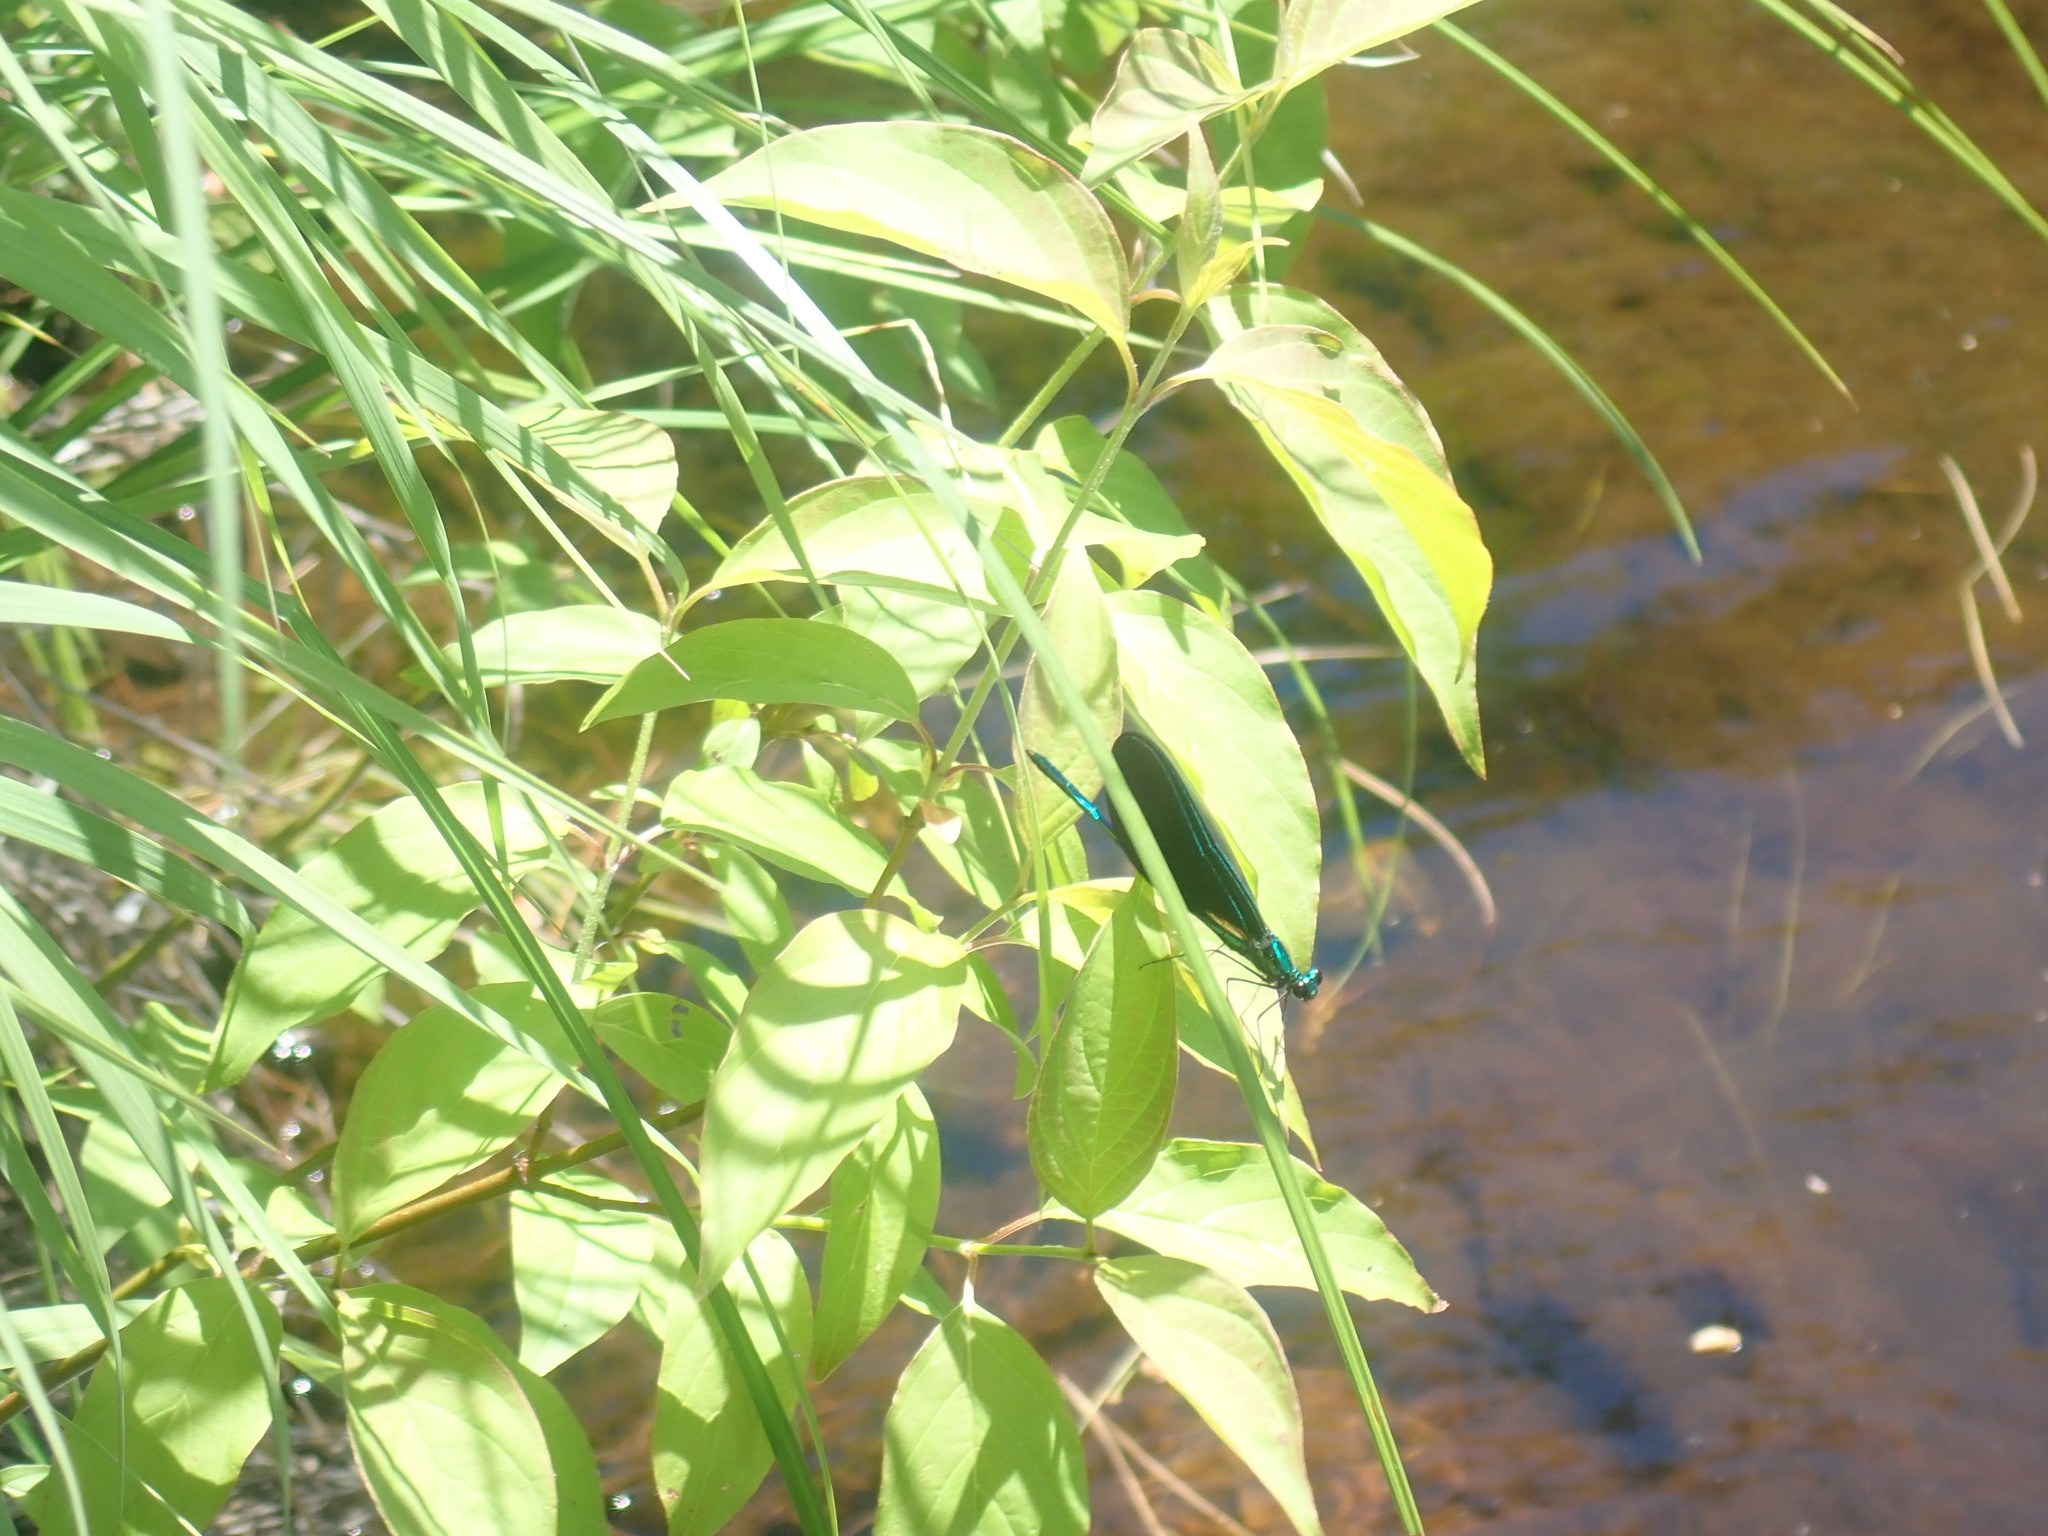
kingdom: Animalia
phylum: Arthropoda
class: Insecta
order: Odonata
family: Calopterygidae
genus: Calopteryx
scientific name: Calopteryx maculata
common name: Ebony jewelwing
